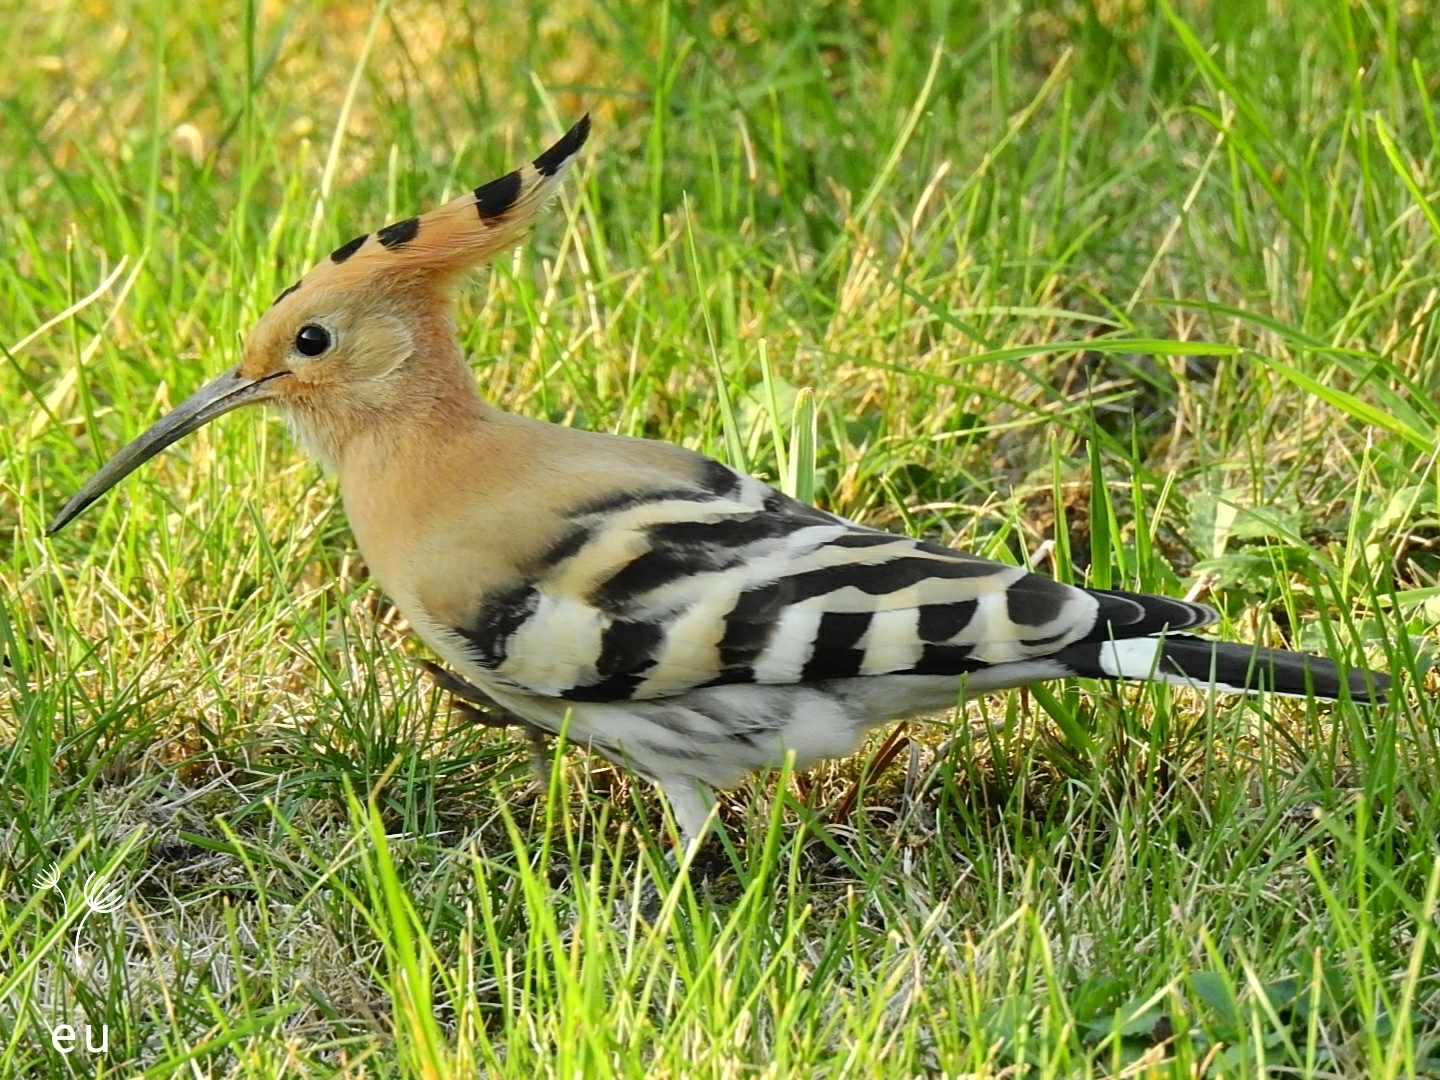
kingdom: Animalia
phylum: Chordata
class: Aves
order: Bucerotiformes
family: Upupidae
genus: Upupa
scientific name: Upupa epops
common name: Eurasian hoopoe
